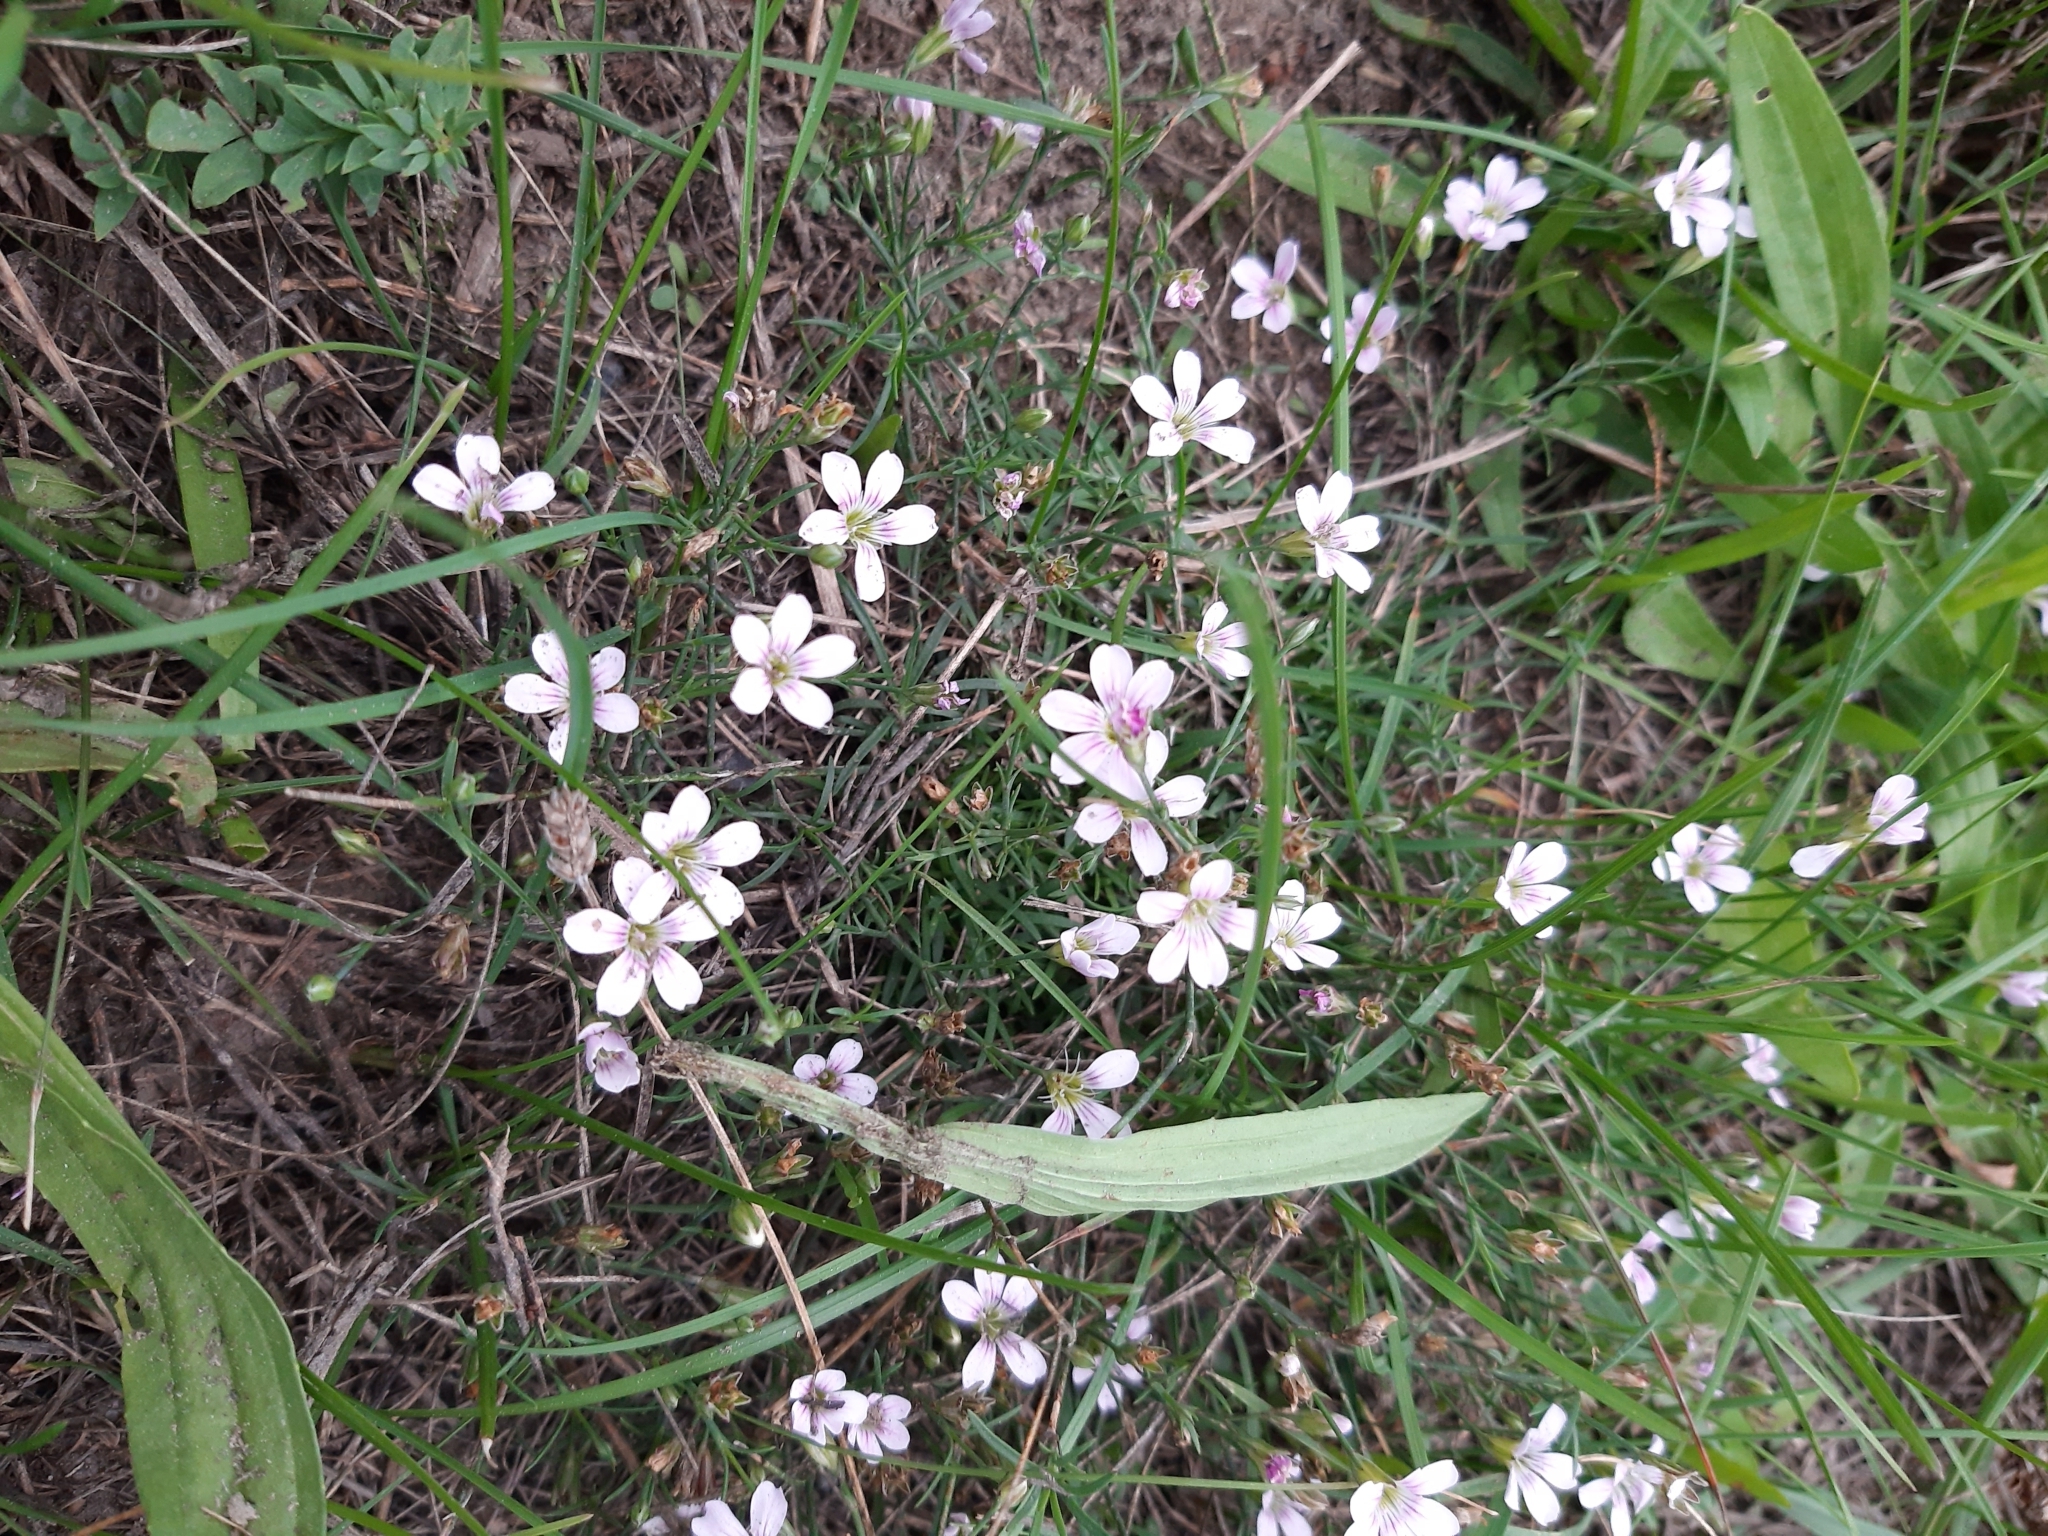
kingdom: Plantae
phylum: Tracheophyta
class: Magnoliopsida
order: Caryophyllales
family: Caryophyllaceae
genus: Petrorhagia
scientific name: Petrorhagia saxifraga
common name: Tunicflower
